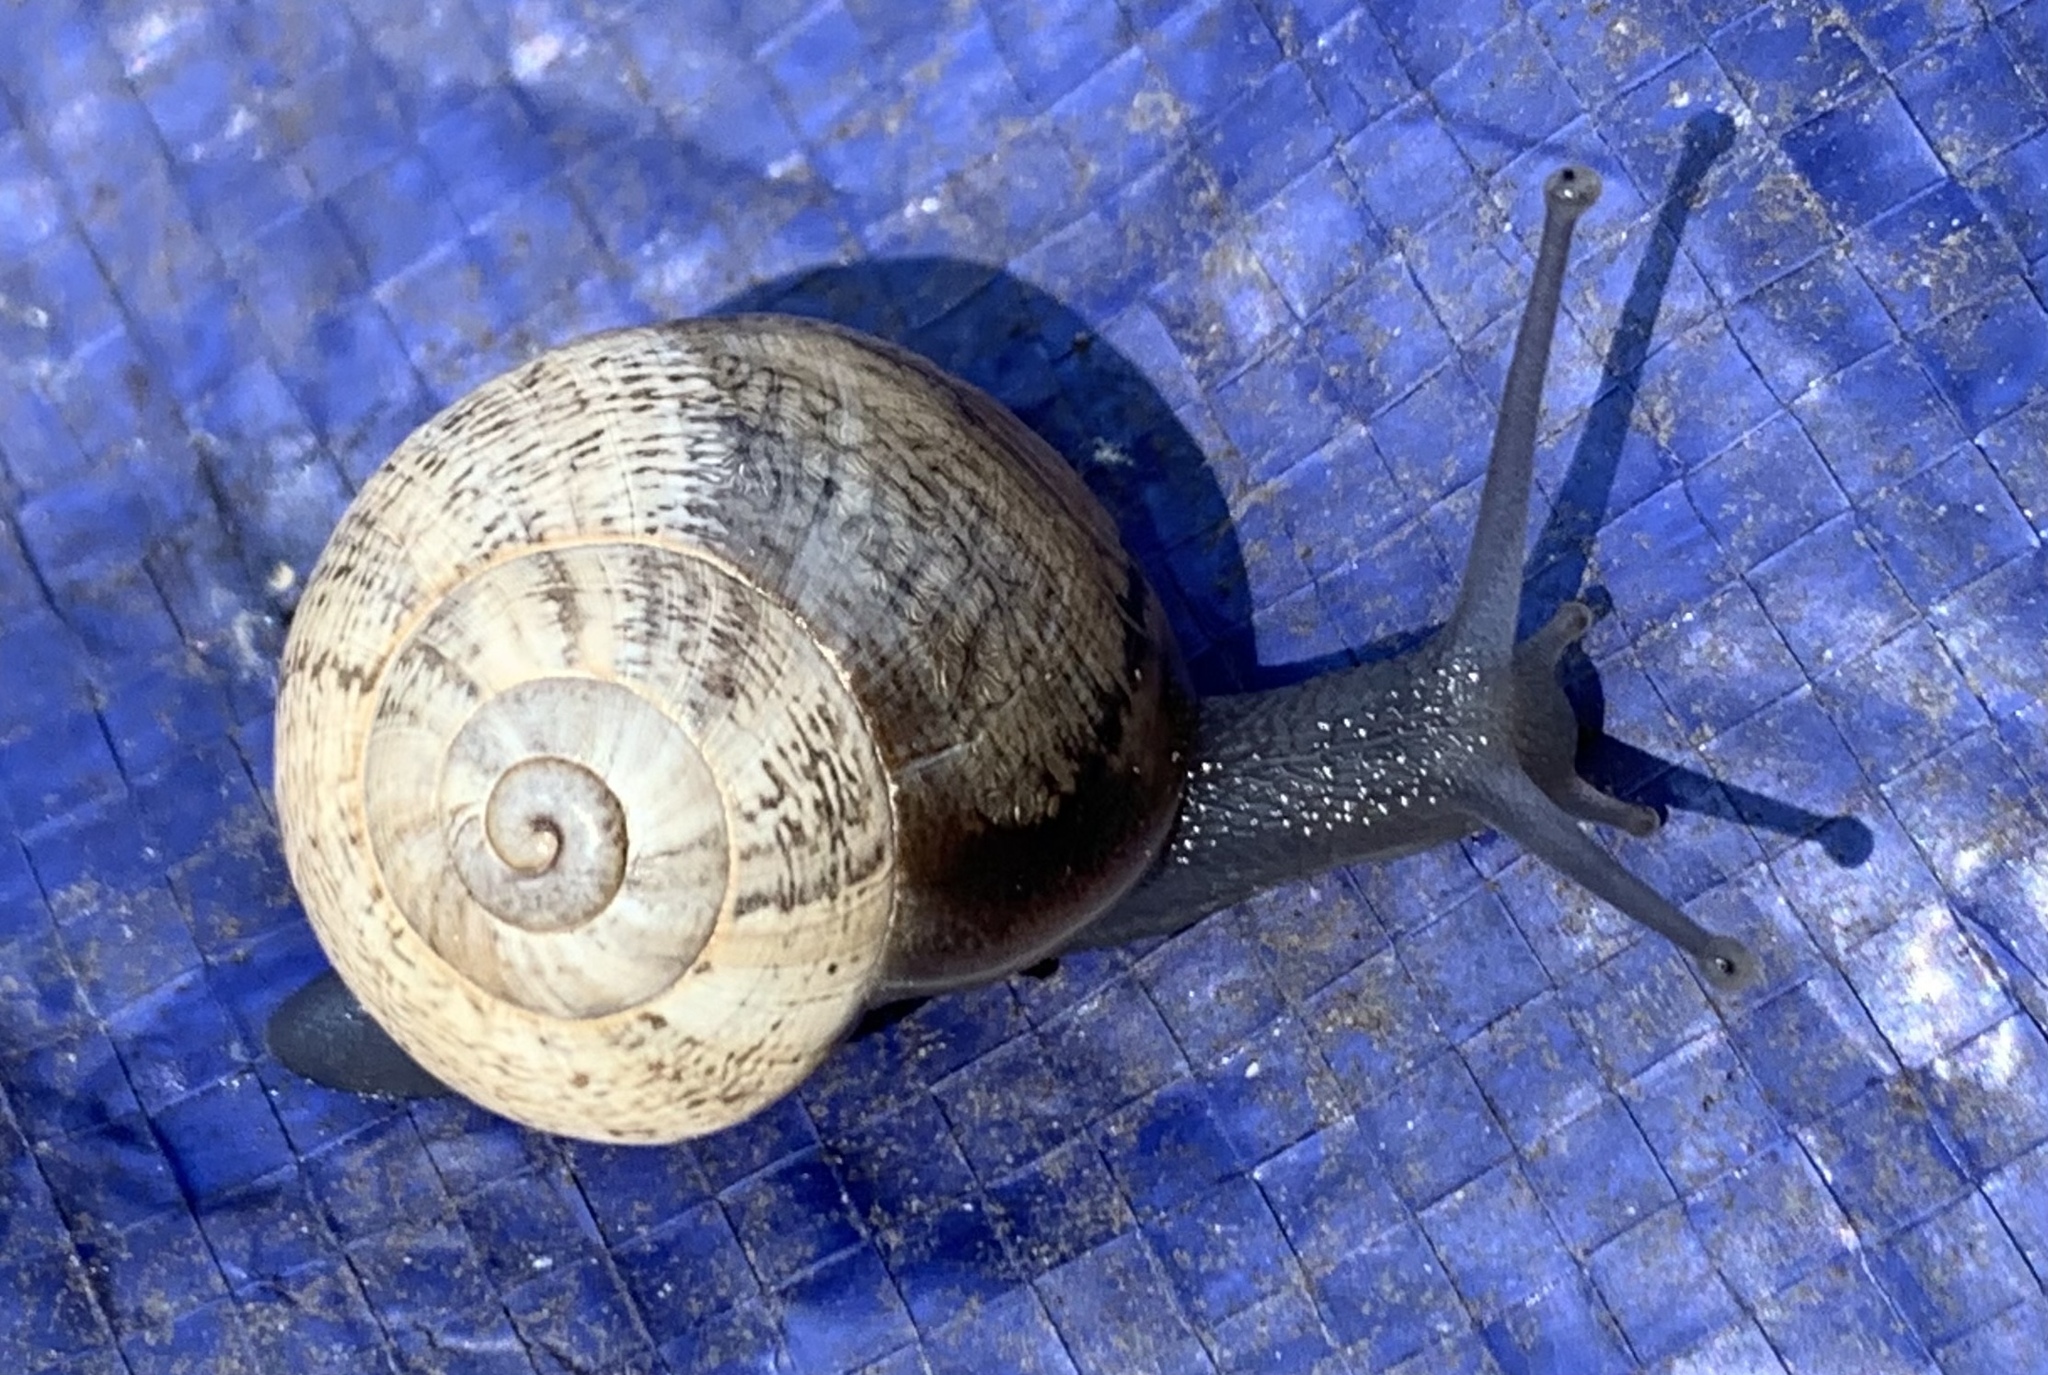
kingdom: Animalia
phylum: Mollusca
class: Gastropoda
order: Stylommatophora
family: Helicidae
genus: Otala
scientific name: Otala lactea
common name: Milk snail
